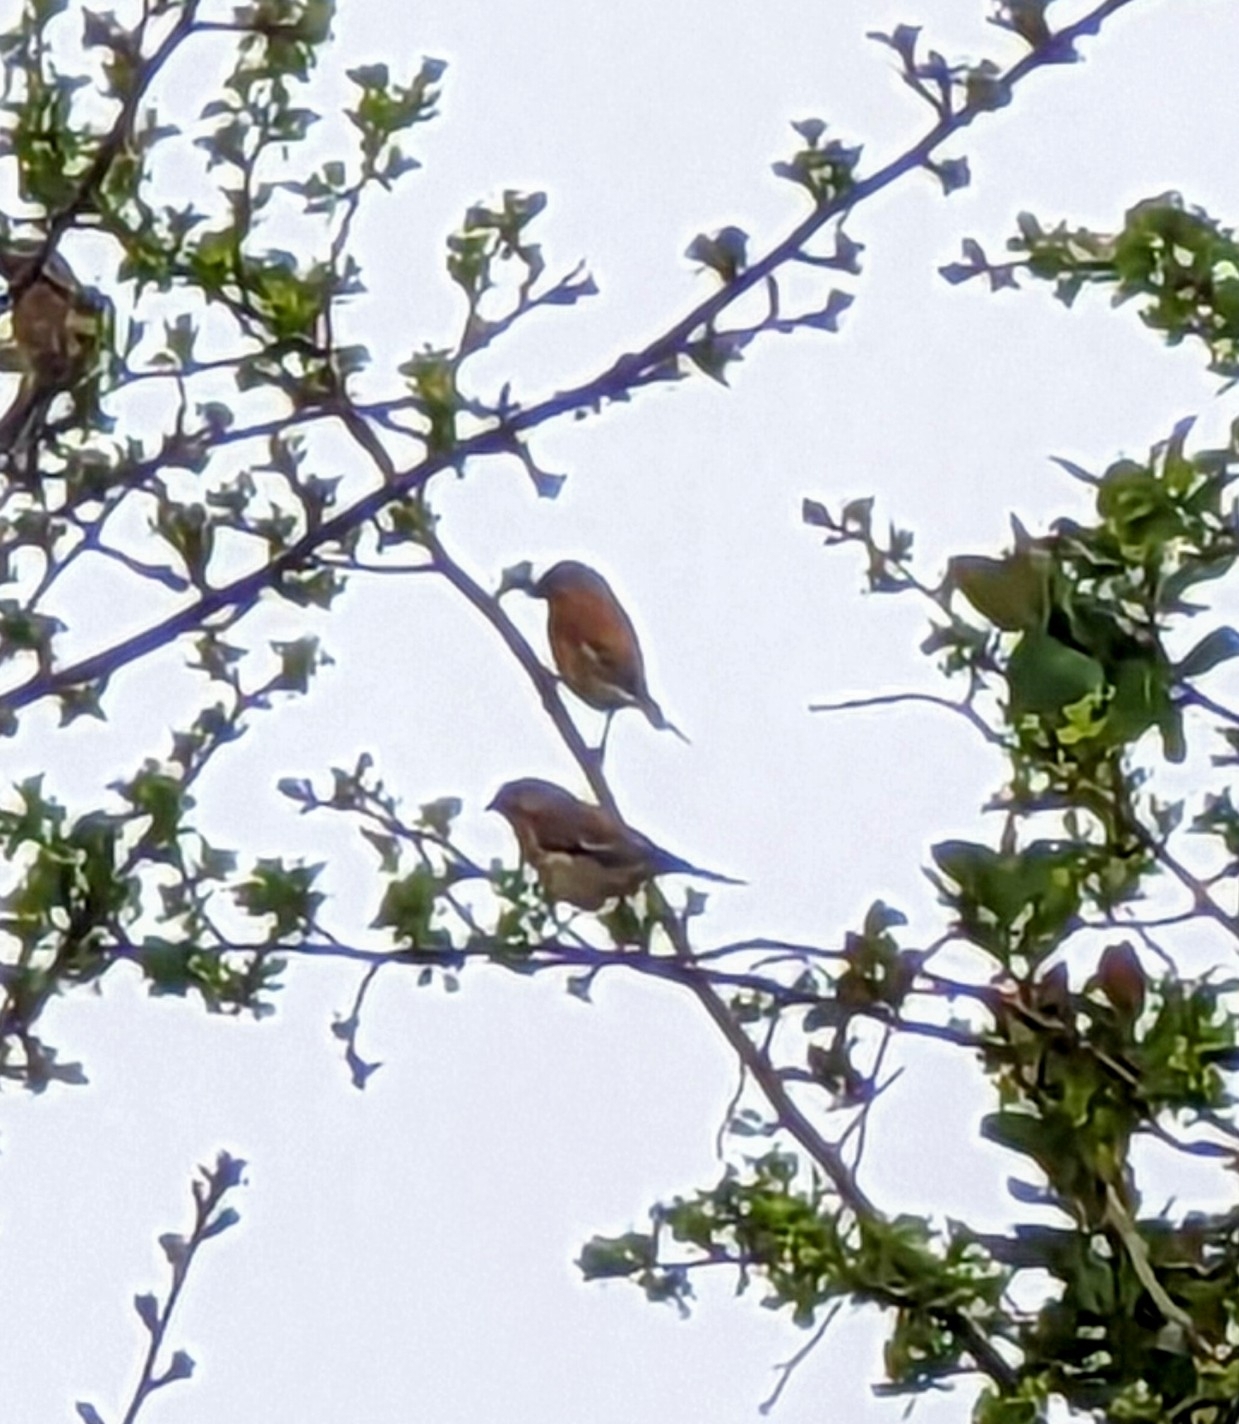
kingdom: Animalia
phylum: Chordata
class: Aves
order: Passeriformes
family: Fringillidae
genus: Linaria
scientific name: Linaria cannabina
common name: Common linnet
